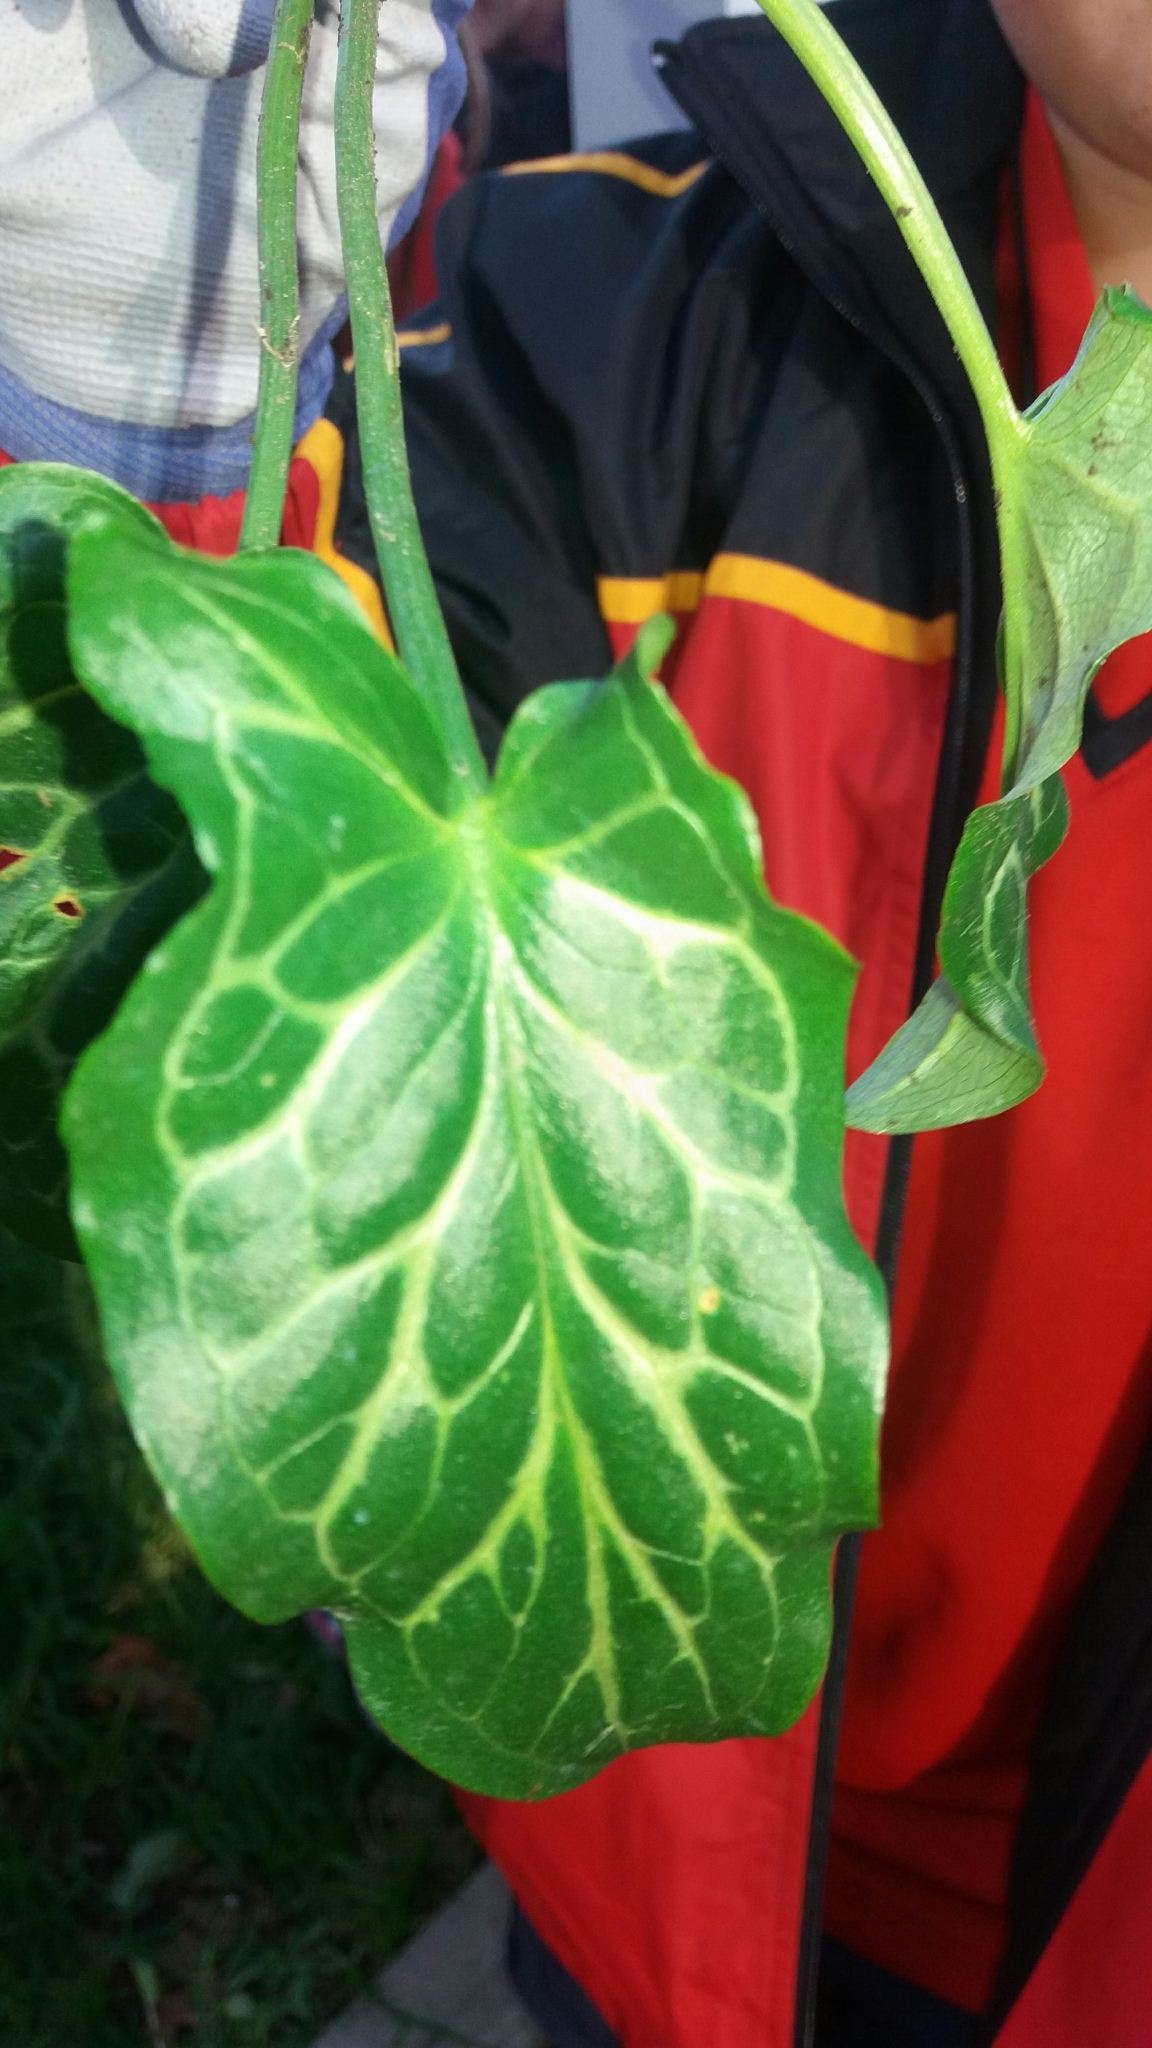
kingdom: Plantae
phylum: Tracheophyta
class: Liliopsida
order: Alismatales
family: Araceae
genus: Arum
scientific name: Arum italicum
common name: Italian lords-and-ladies
